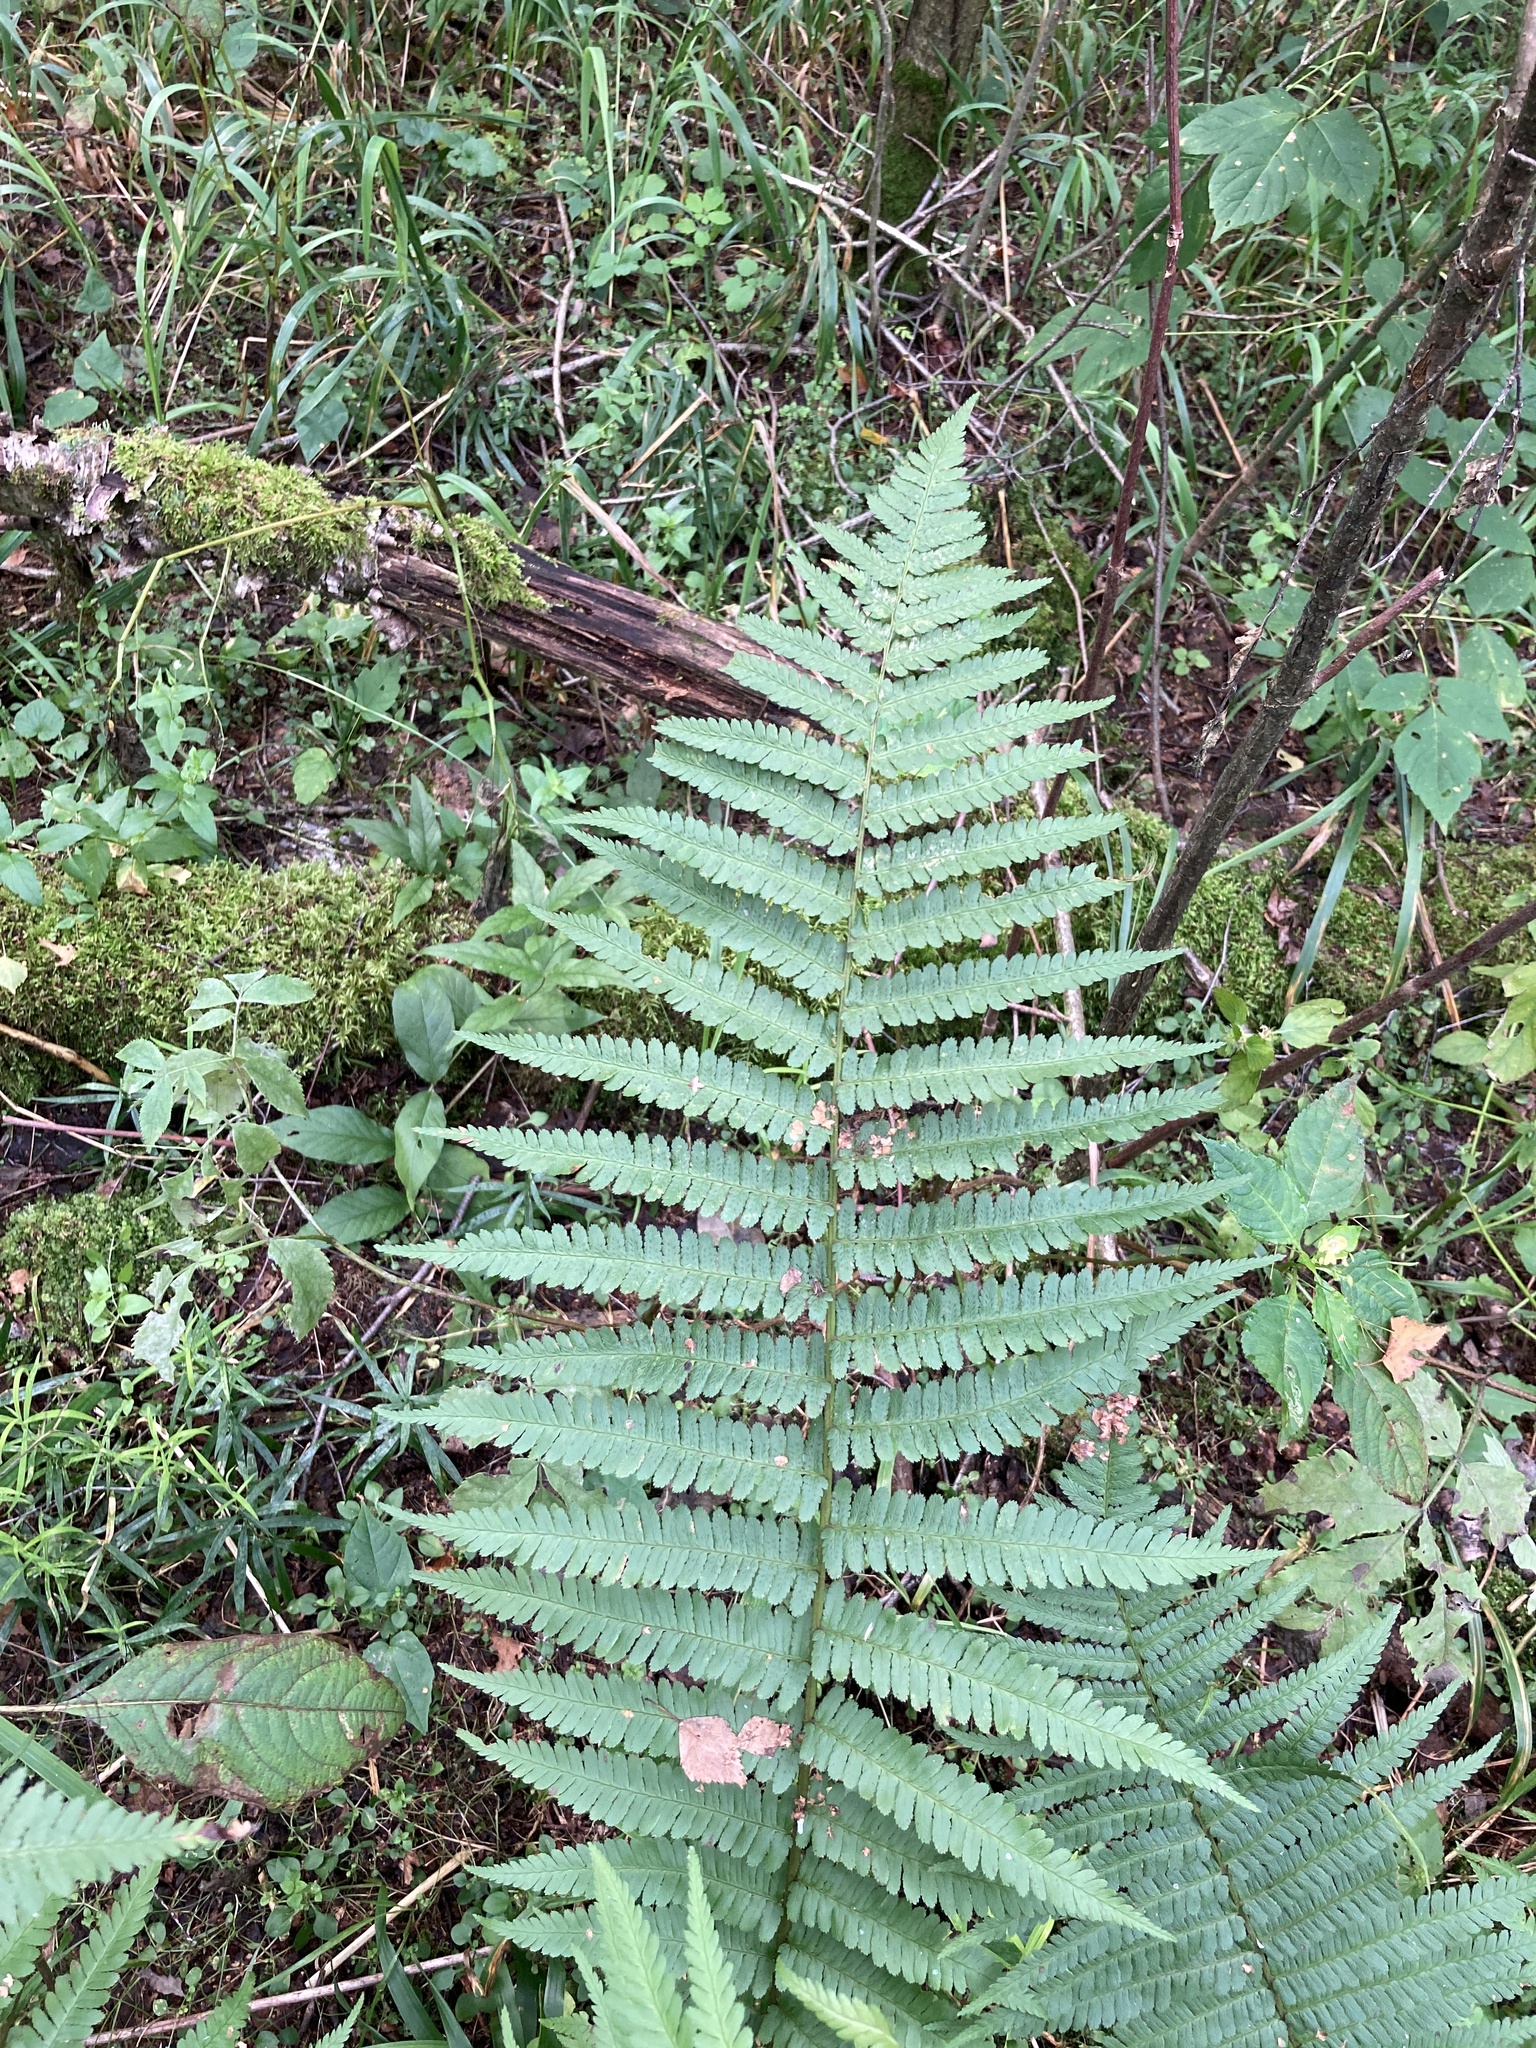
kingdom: Plantae
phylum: Tracheophyta
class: Polypodiopsida
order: Polypodiales
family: Dryopteridaceae
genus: Dryopteris
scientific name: Dryopteris filix-mas
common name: Male fern
